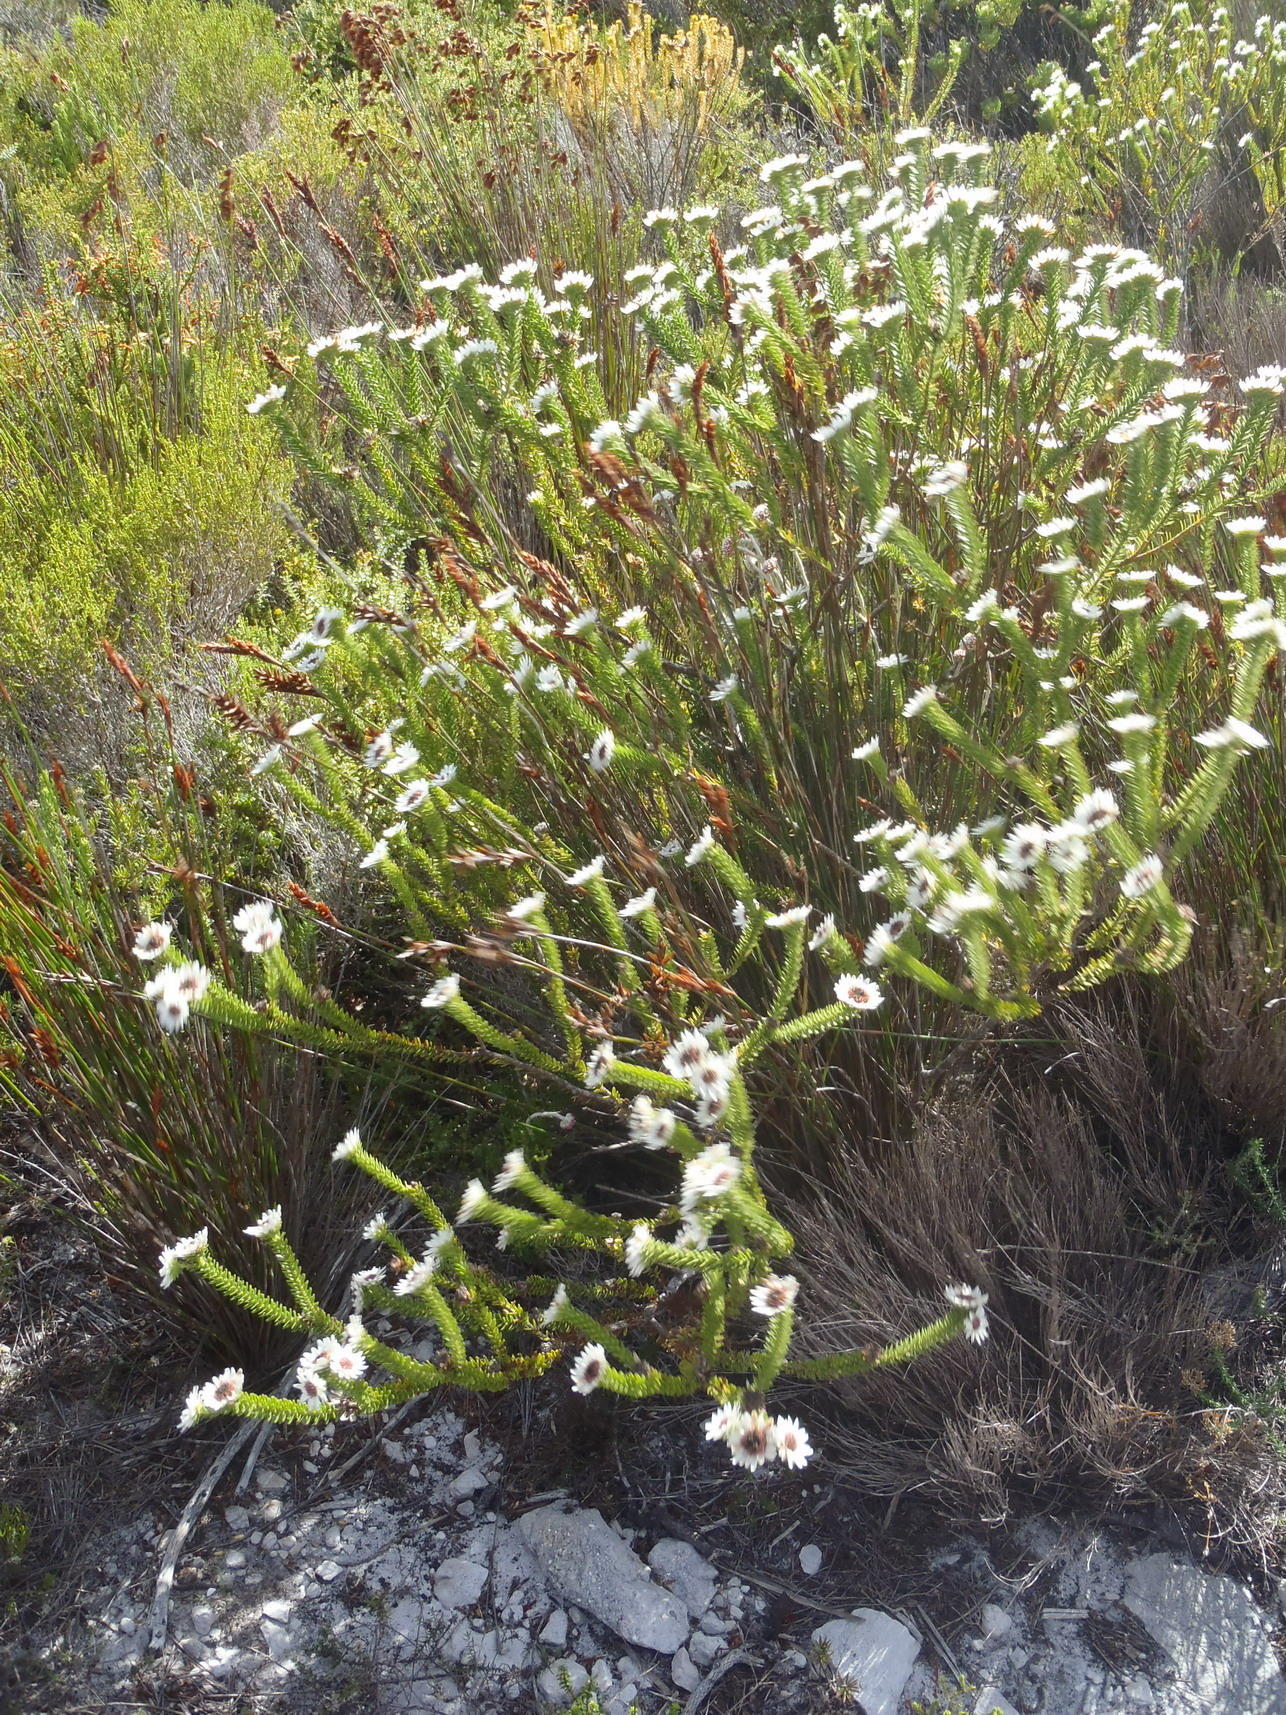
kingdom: Plantae
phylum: Tracheophyta
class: Magnoliopsida
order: Bruniales
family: Bruniaceae
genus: Staavia
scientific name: Staavia dodii
